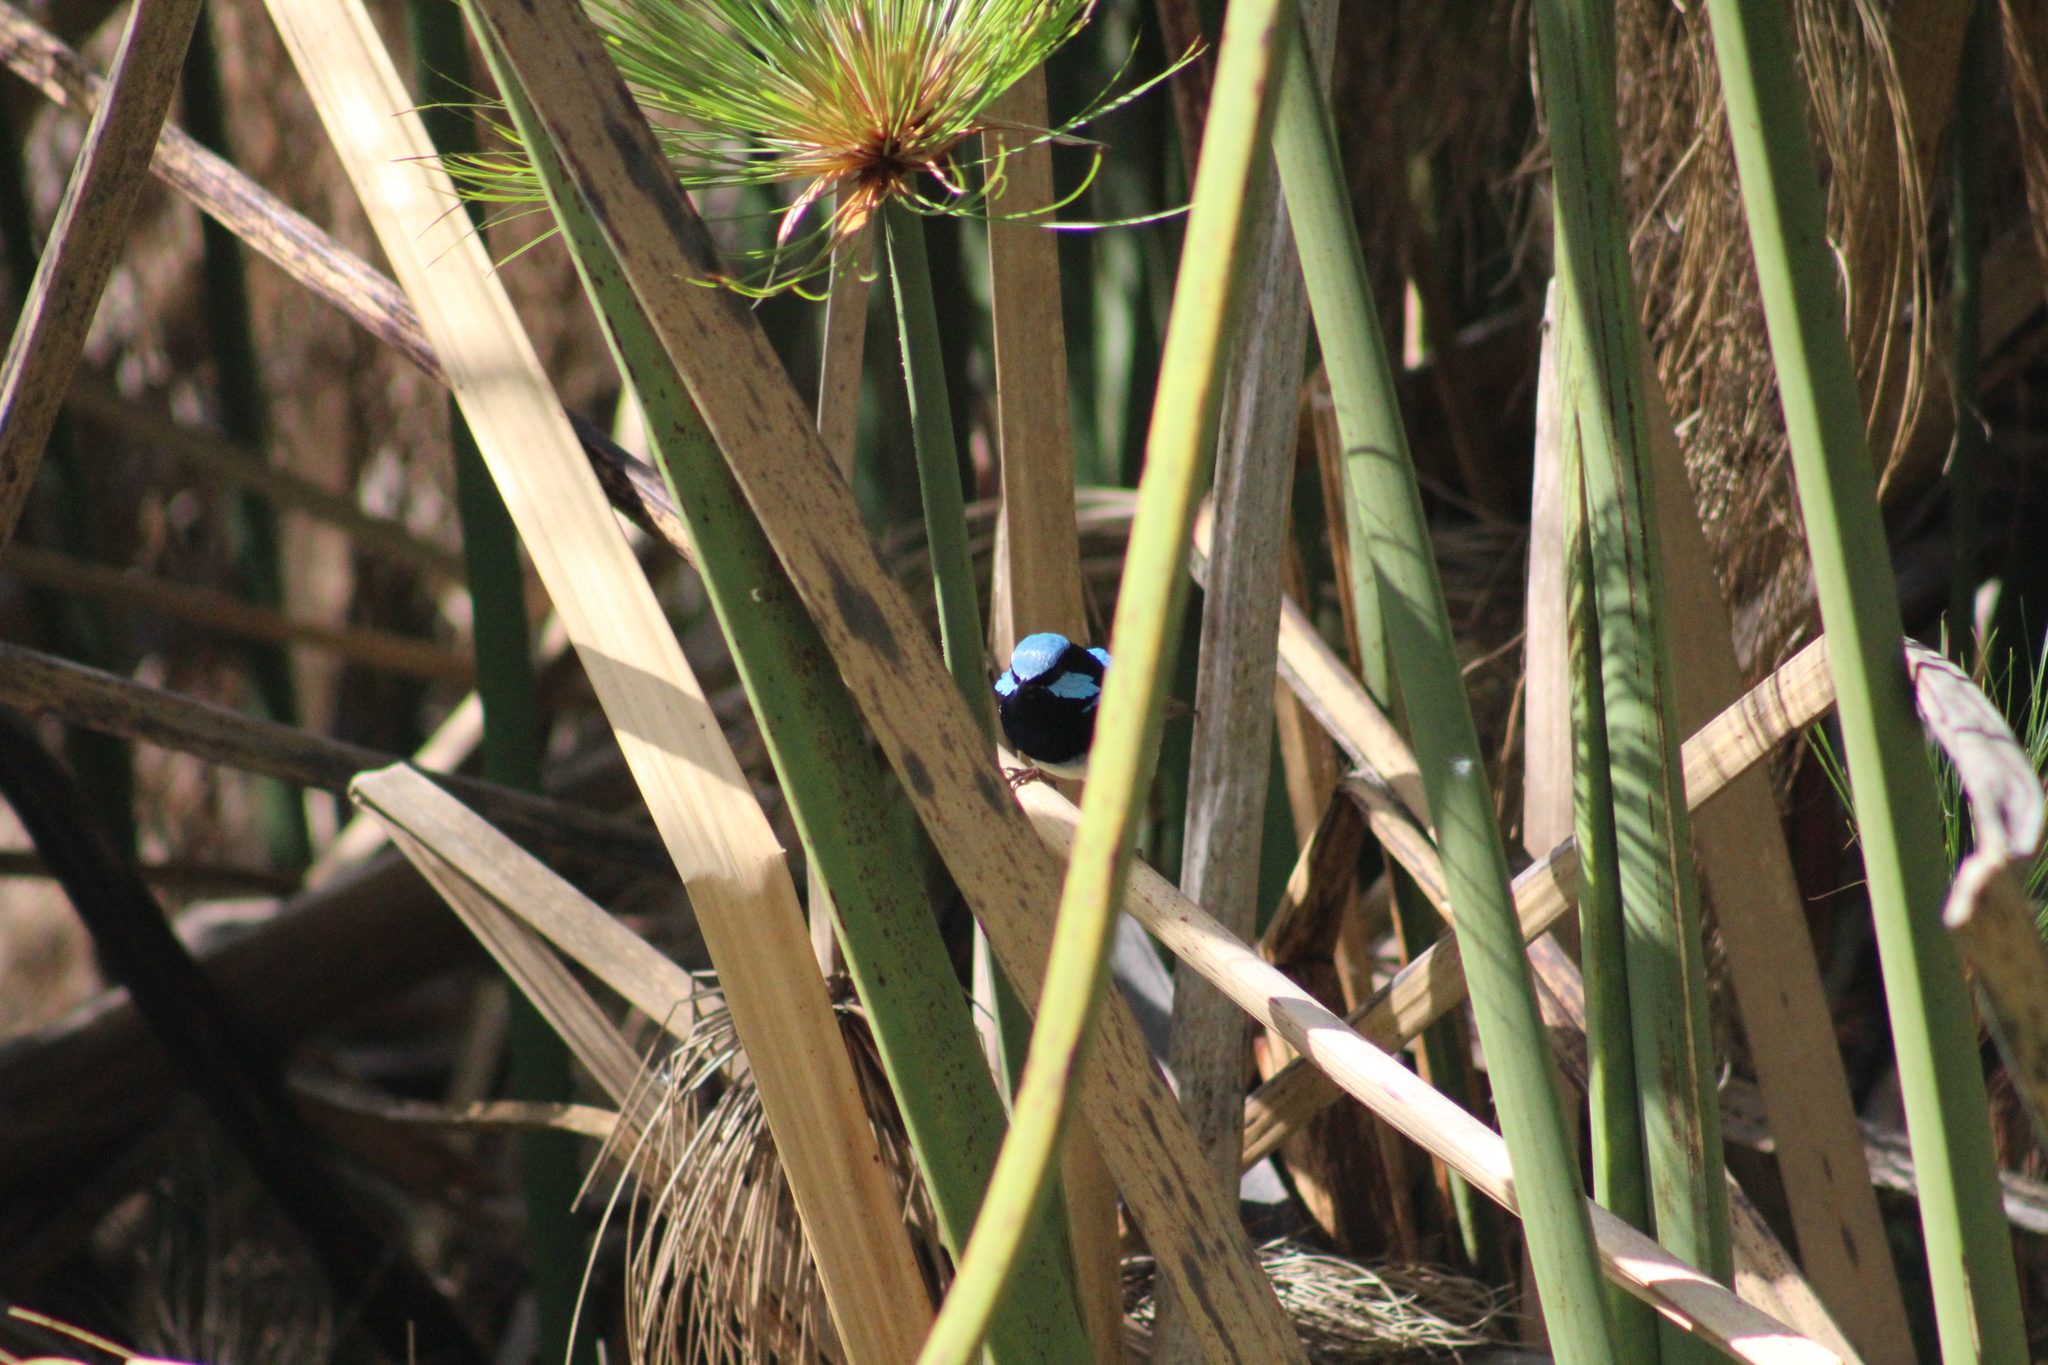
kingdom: Animalia
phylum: Chordata
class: Aves
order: Passeriformes
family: Maluridae
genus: Malurus
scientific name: Malurus cyaneus
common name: Superb fairywren
